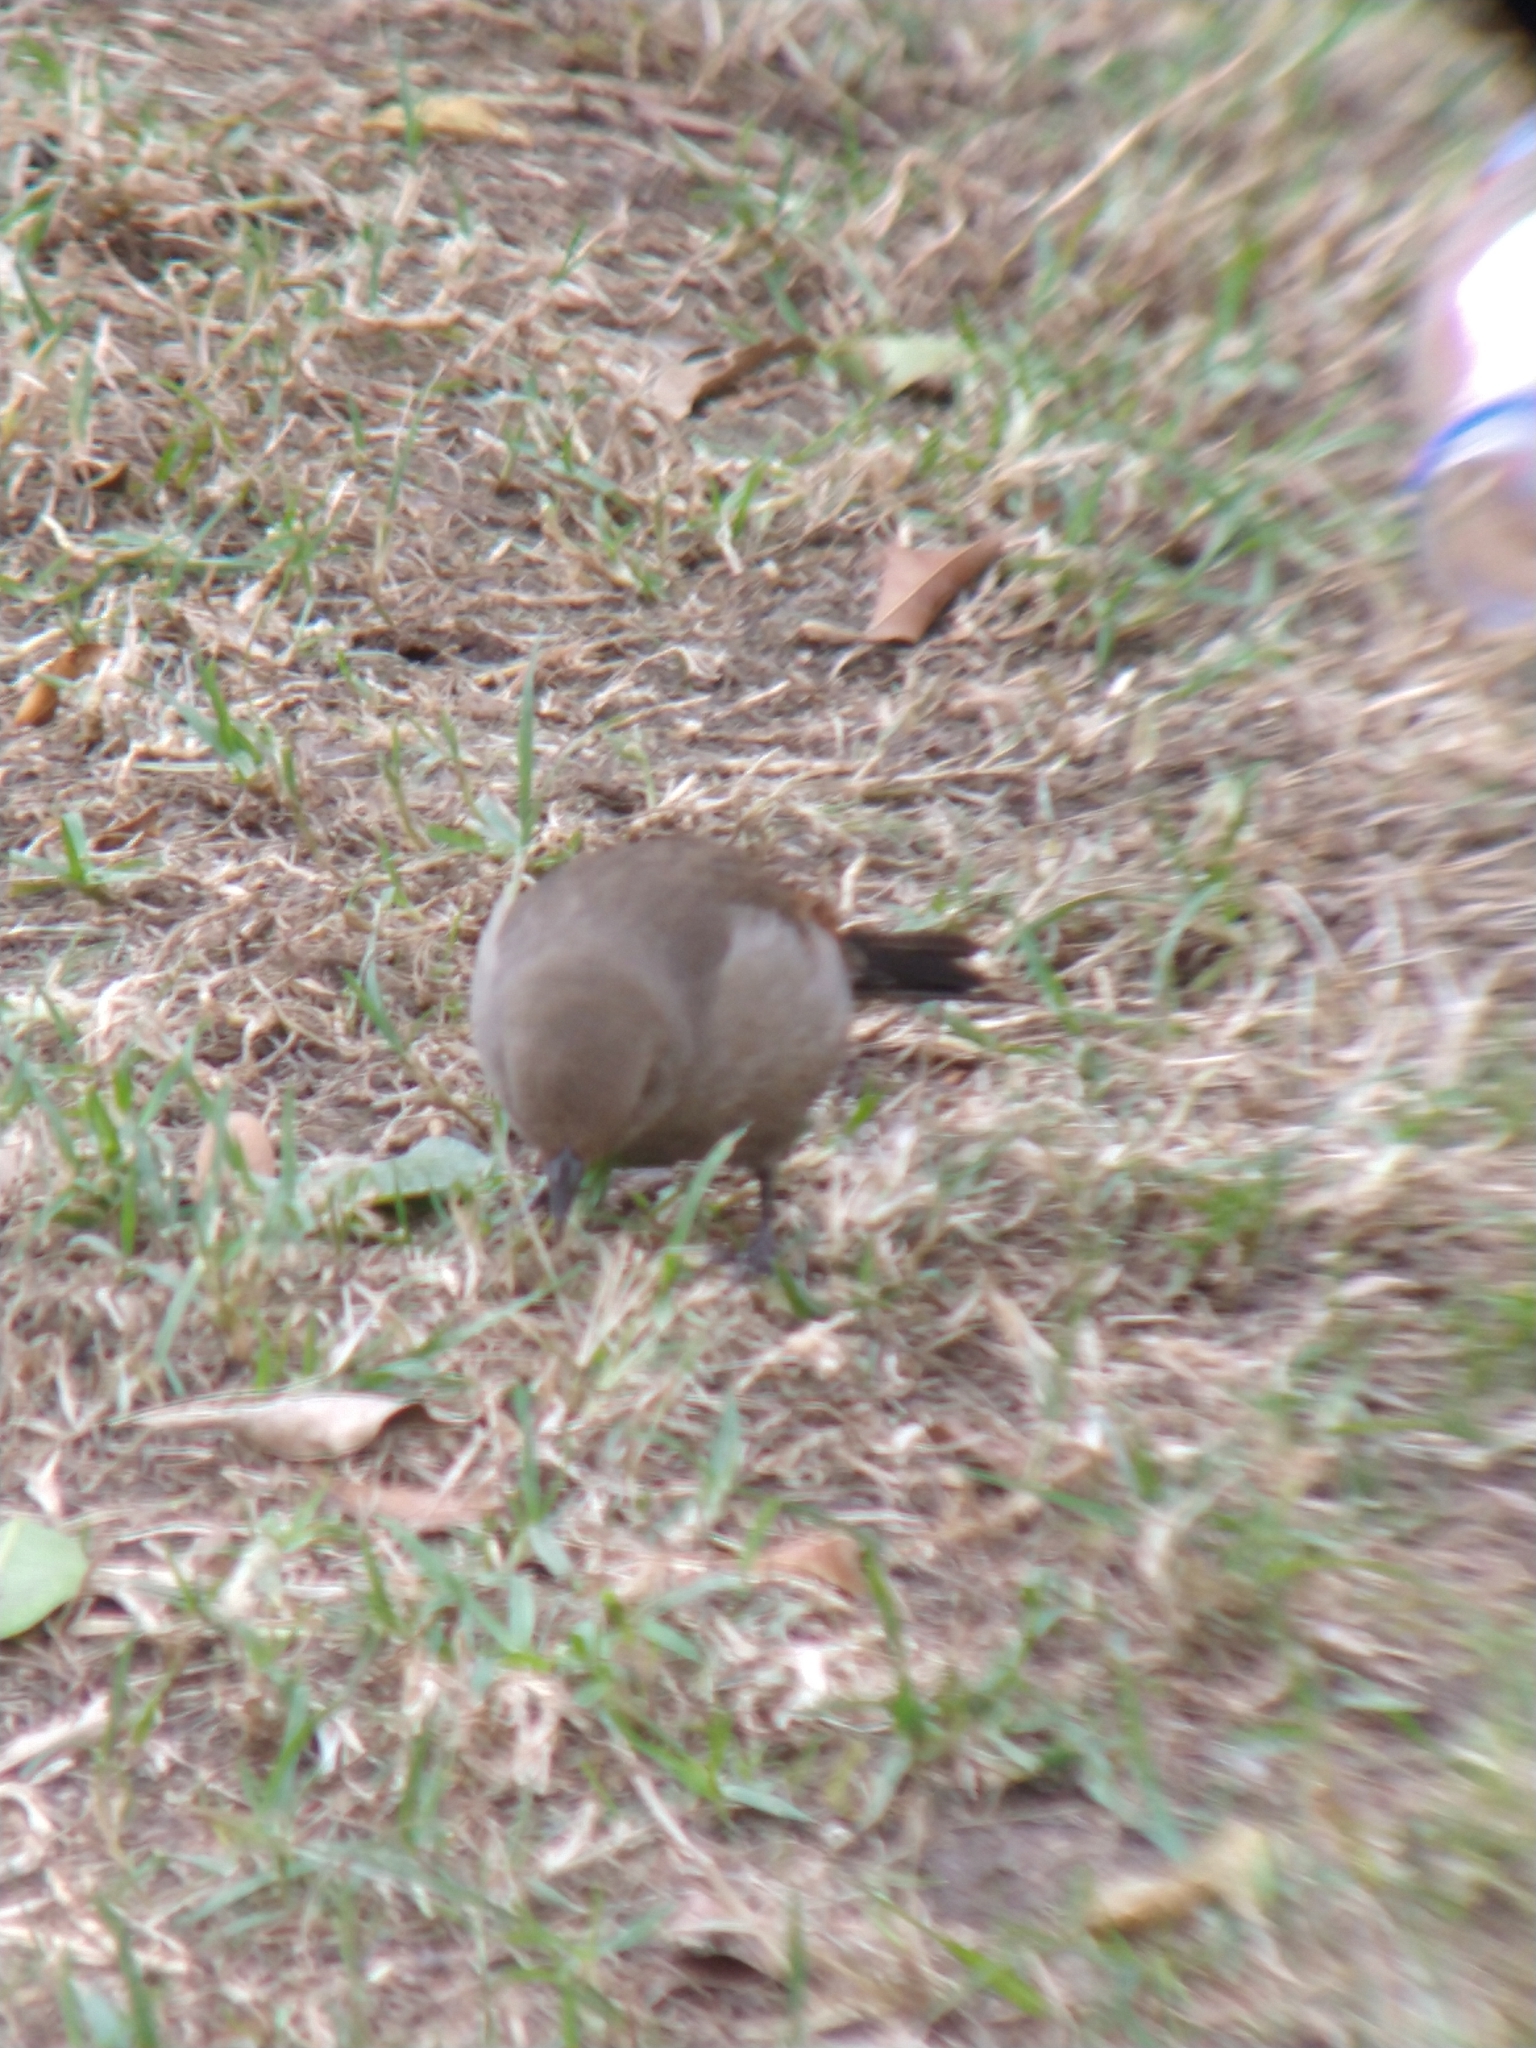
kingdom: Animalia
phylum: Chordata
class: Aves
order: Passeriformes
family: Icteridae
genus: Agelaioides
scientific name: Agelaioides badius
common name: Baywing
